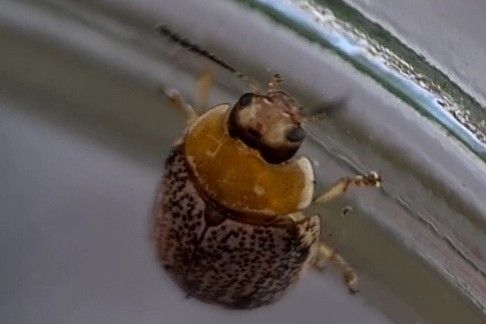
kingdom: Animalia
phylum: Arthropoda
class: Insecta
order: Coleoptera
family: Chrysomelidae
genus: Paropsisterna
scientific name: Paropsisterna
